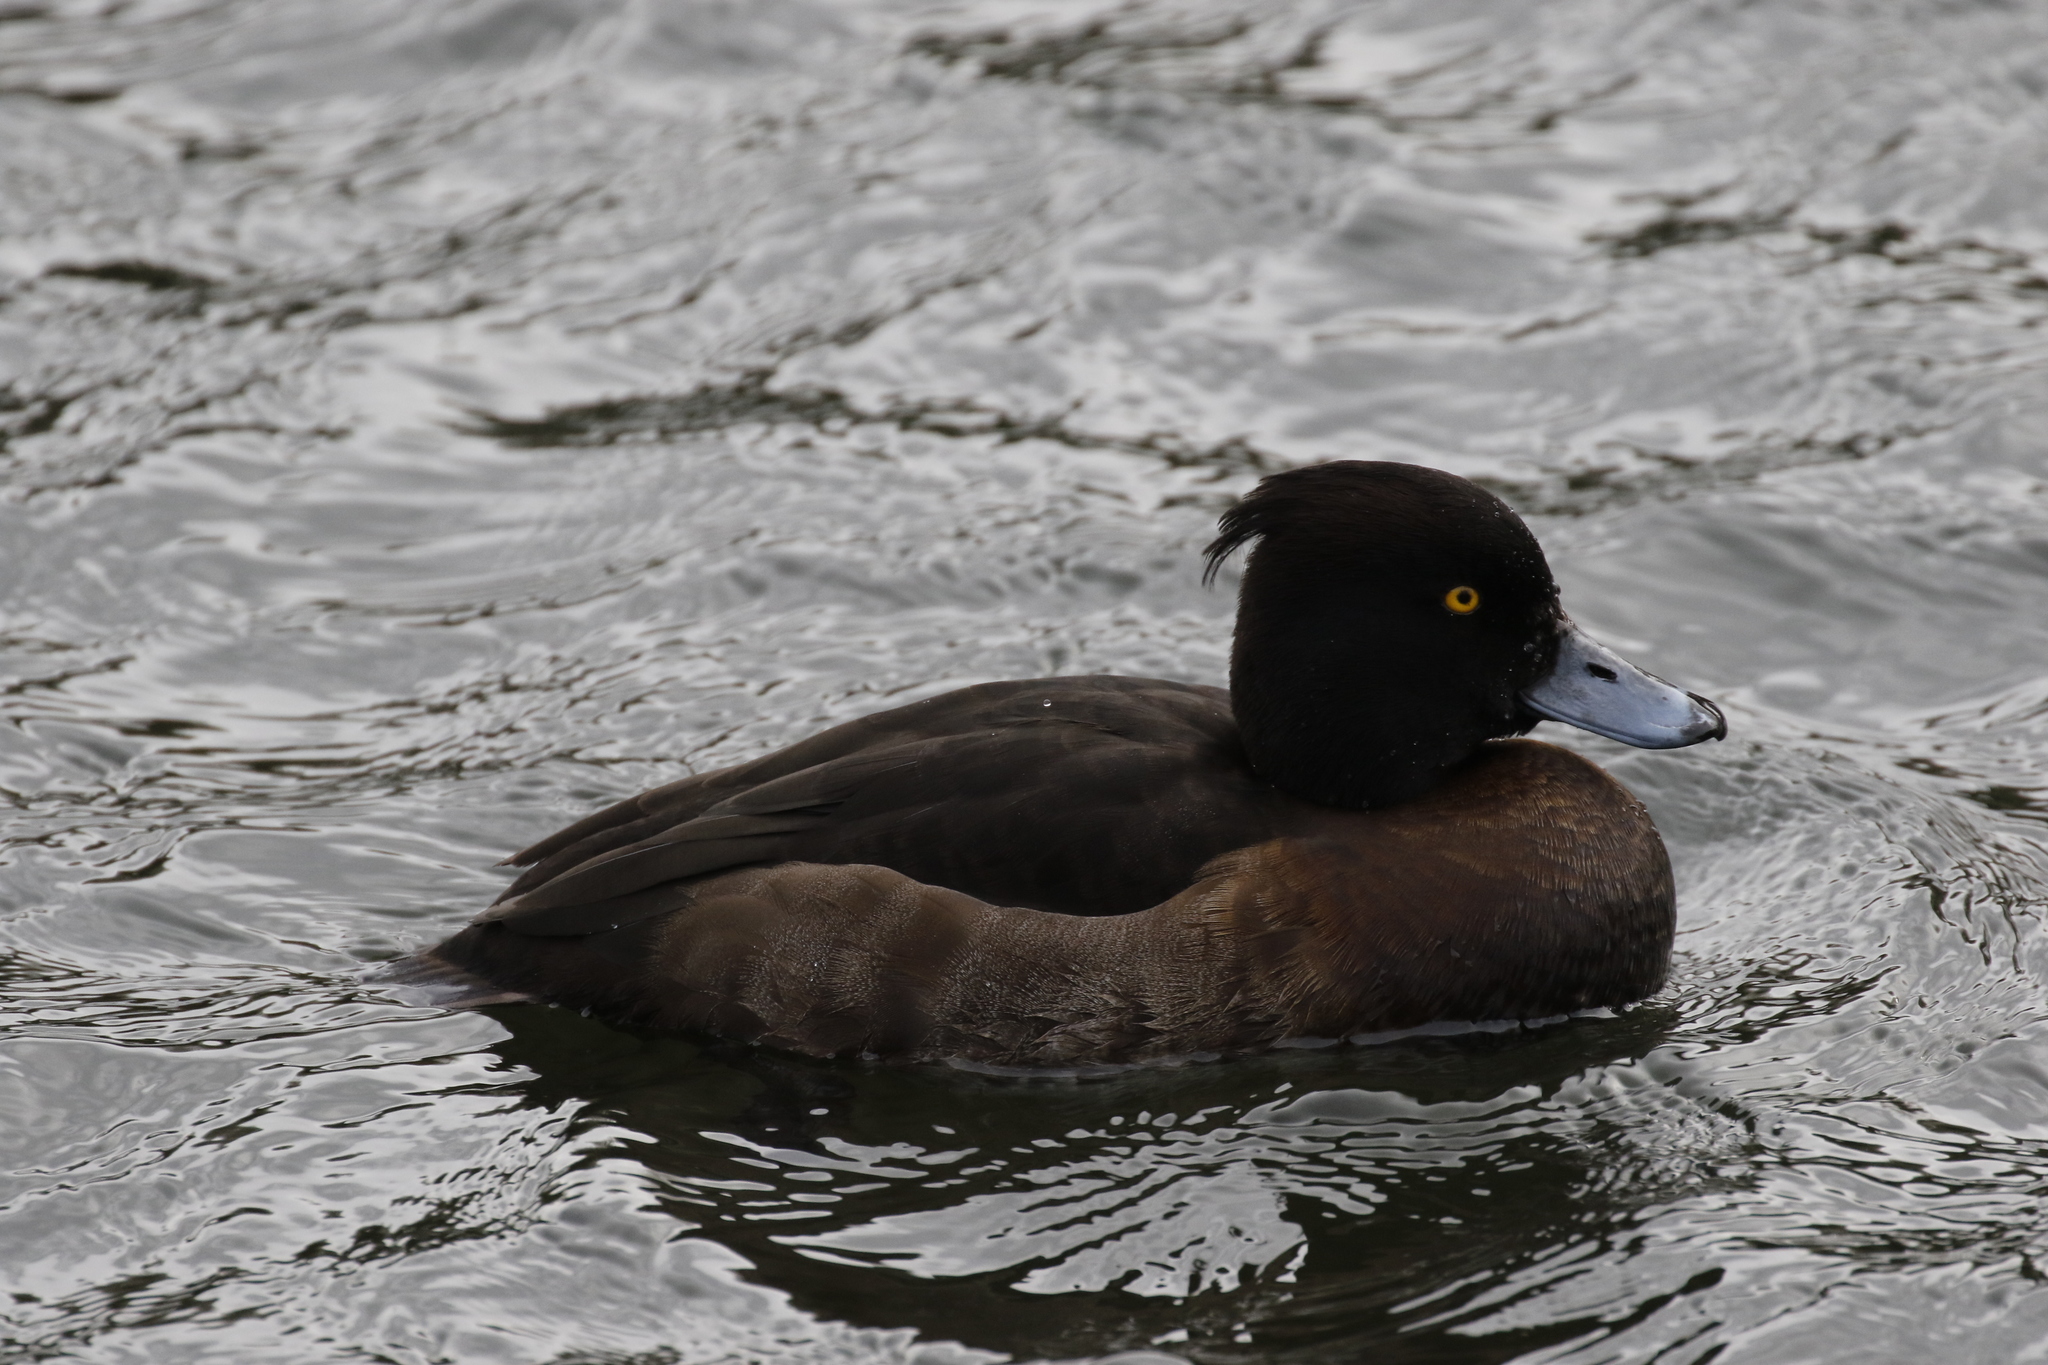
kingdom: Animalia
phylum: Chordata
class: Aves
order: Anseriformes
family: Anatidae
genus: Aythya
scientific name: Aythya fuligula
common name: Tufted duck
